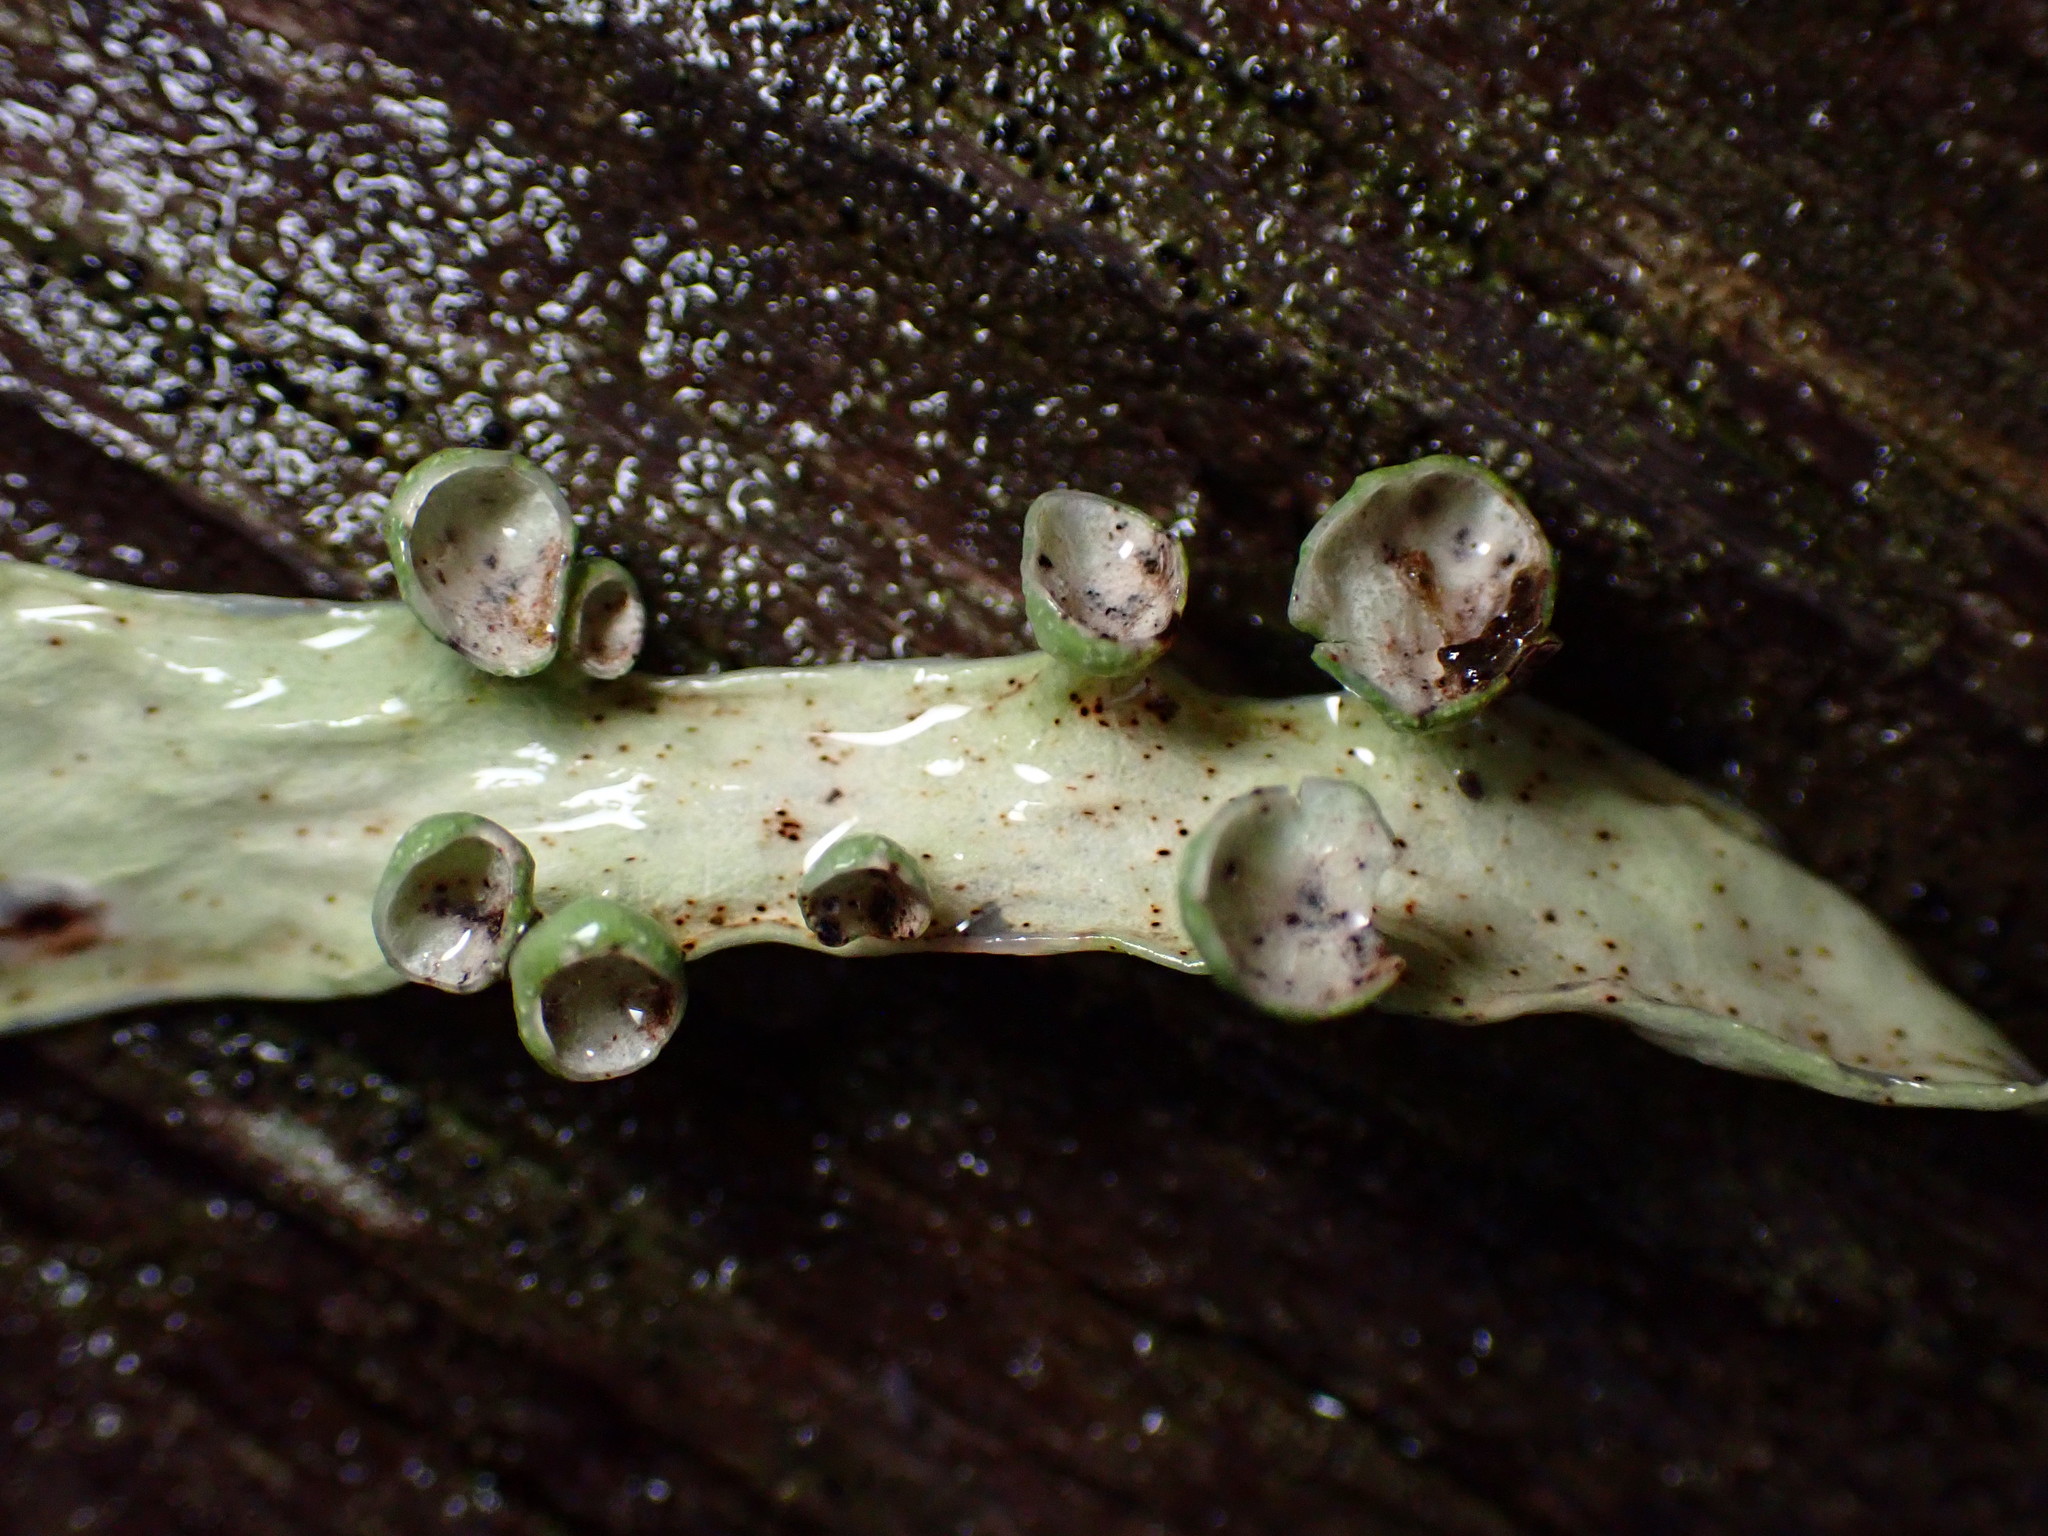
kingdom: Fungi
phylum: Ascomycota
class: Lecanoromycetes
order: Lecanorales
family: Ramalinaceae
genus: Ramalina
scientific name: Ramalina leptocarpha
